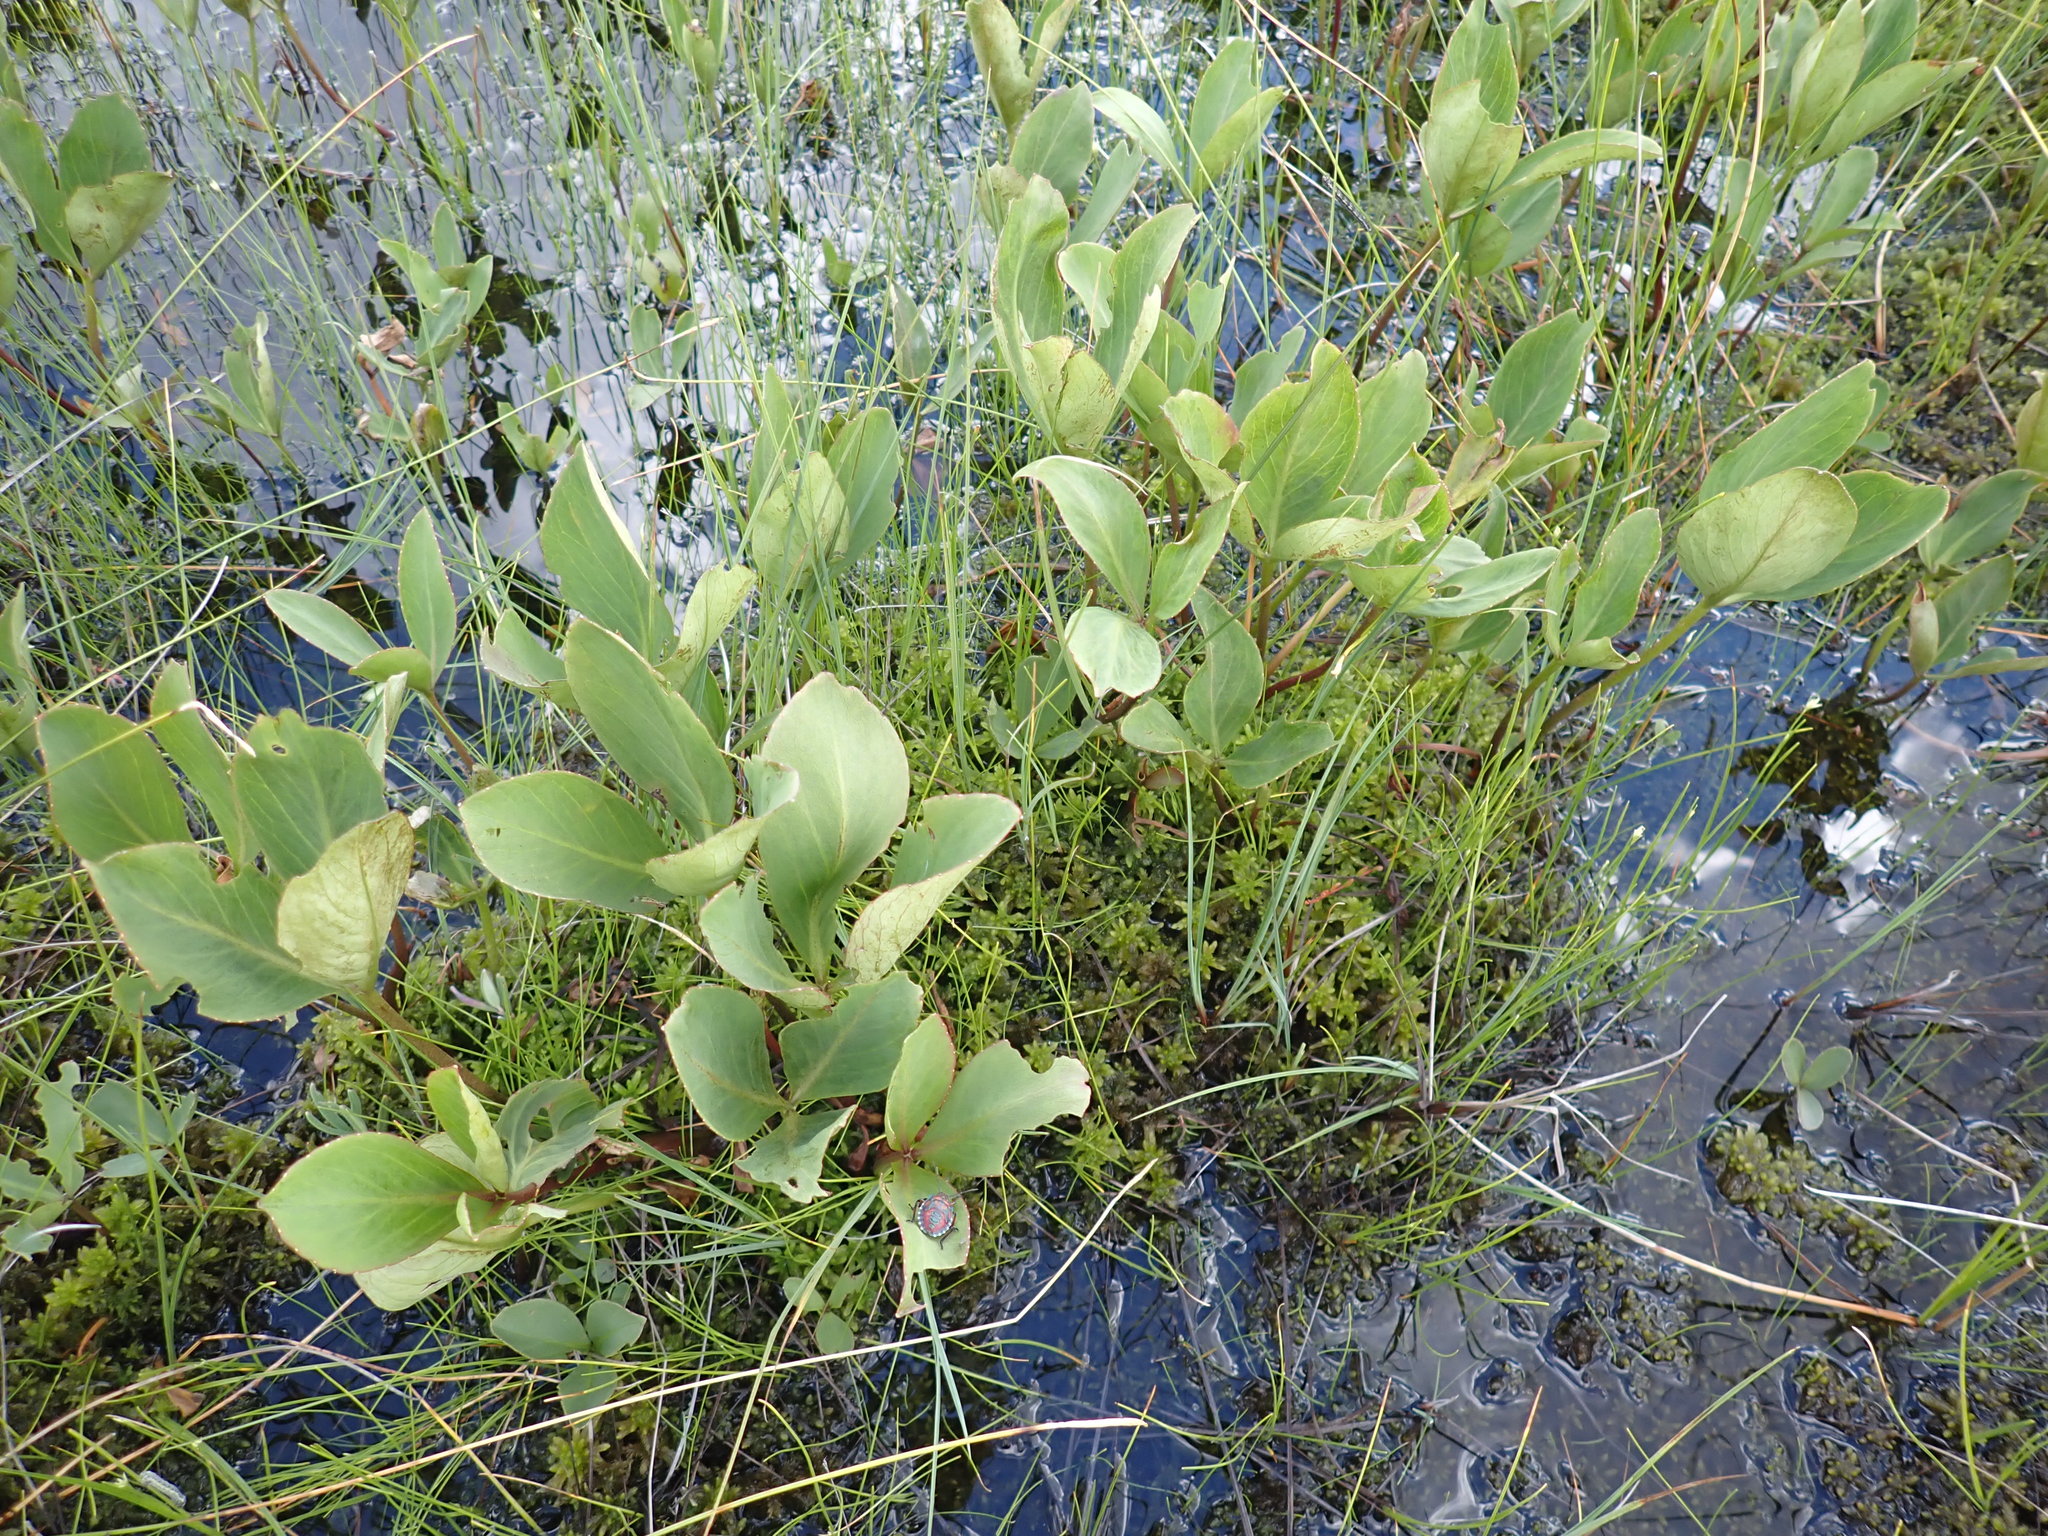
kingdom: Plantae
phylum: Tracheophyta
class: Magnoliopsida
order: Asterales
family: Menyanthaceae
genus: Menyanthes
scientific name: Menyanthes trifoliata
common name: Bogbean
